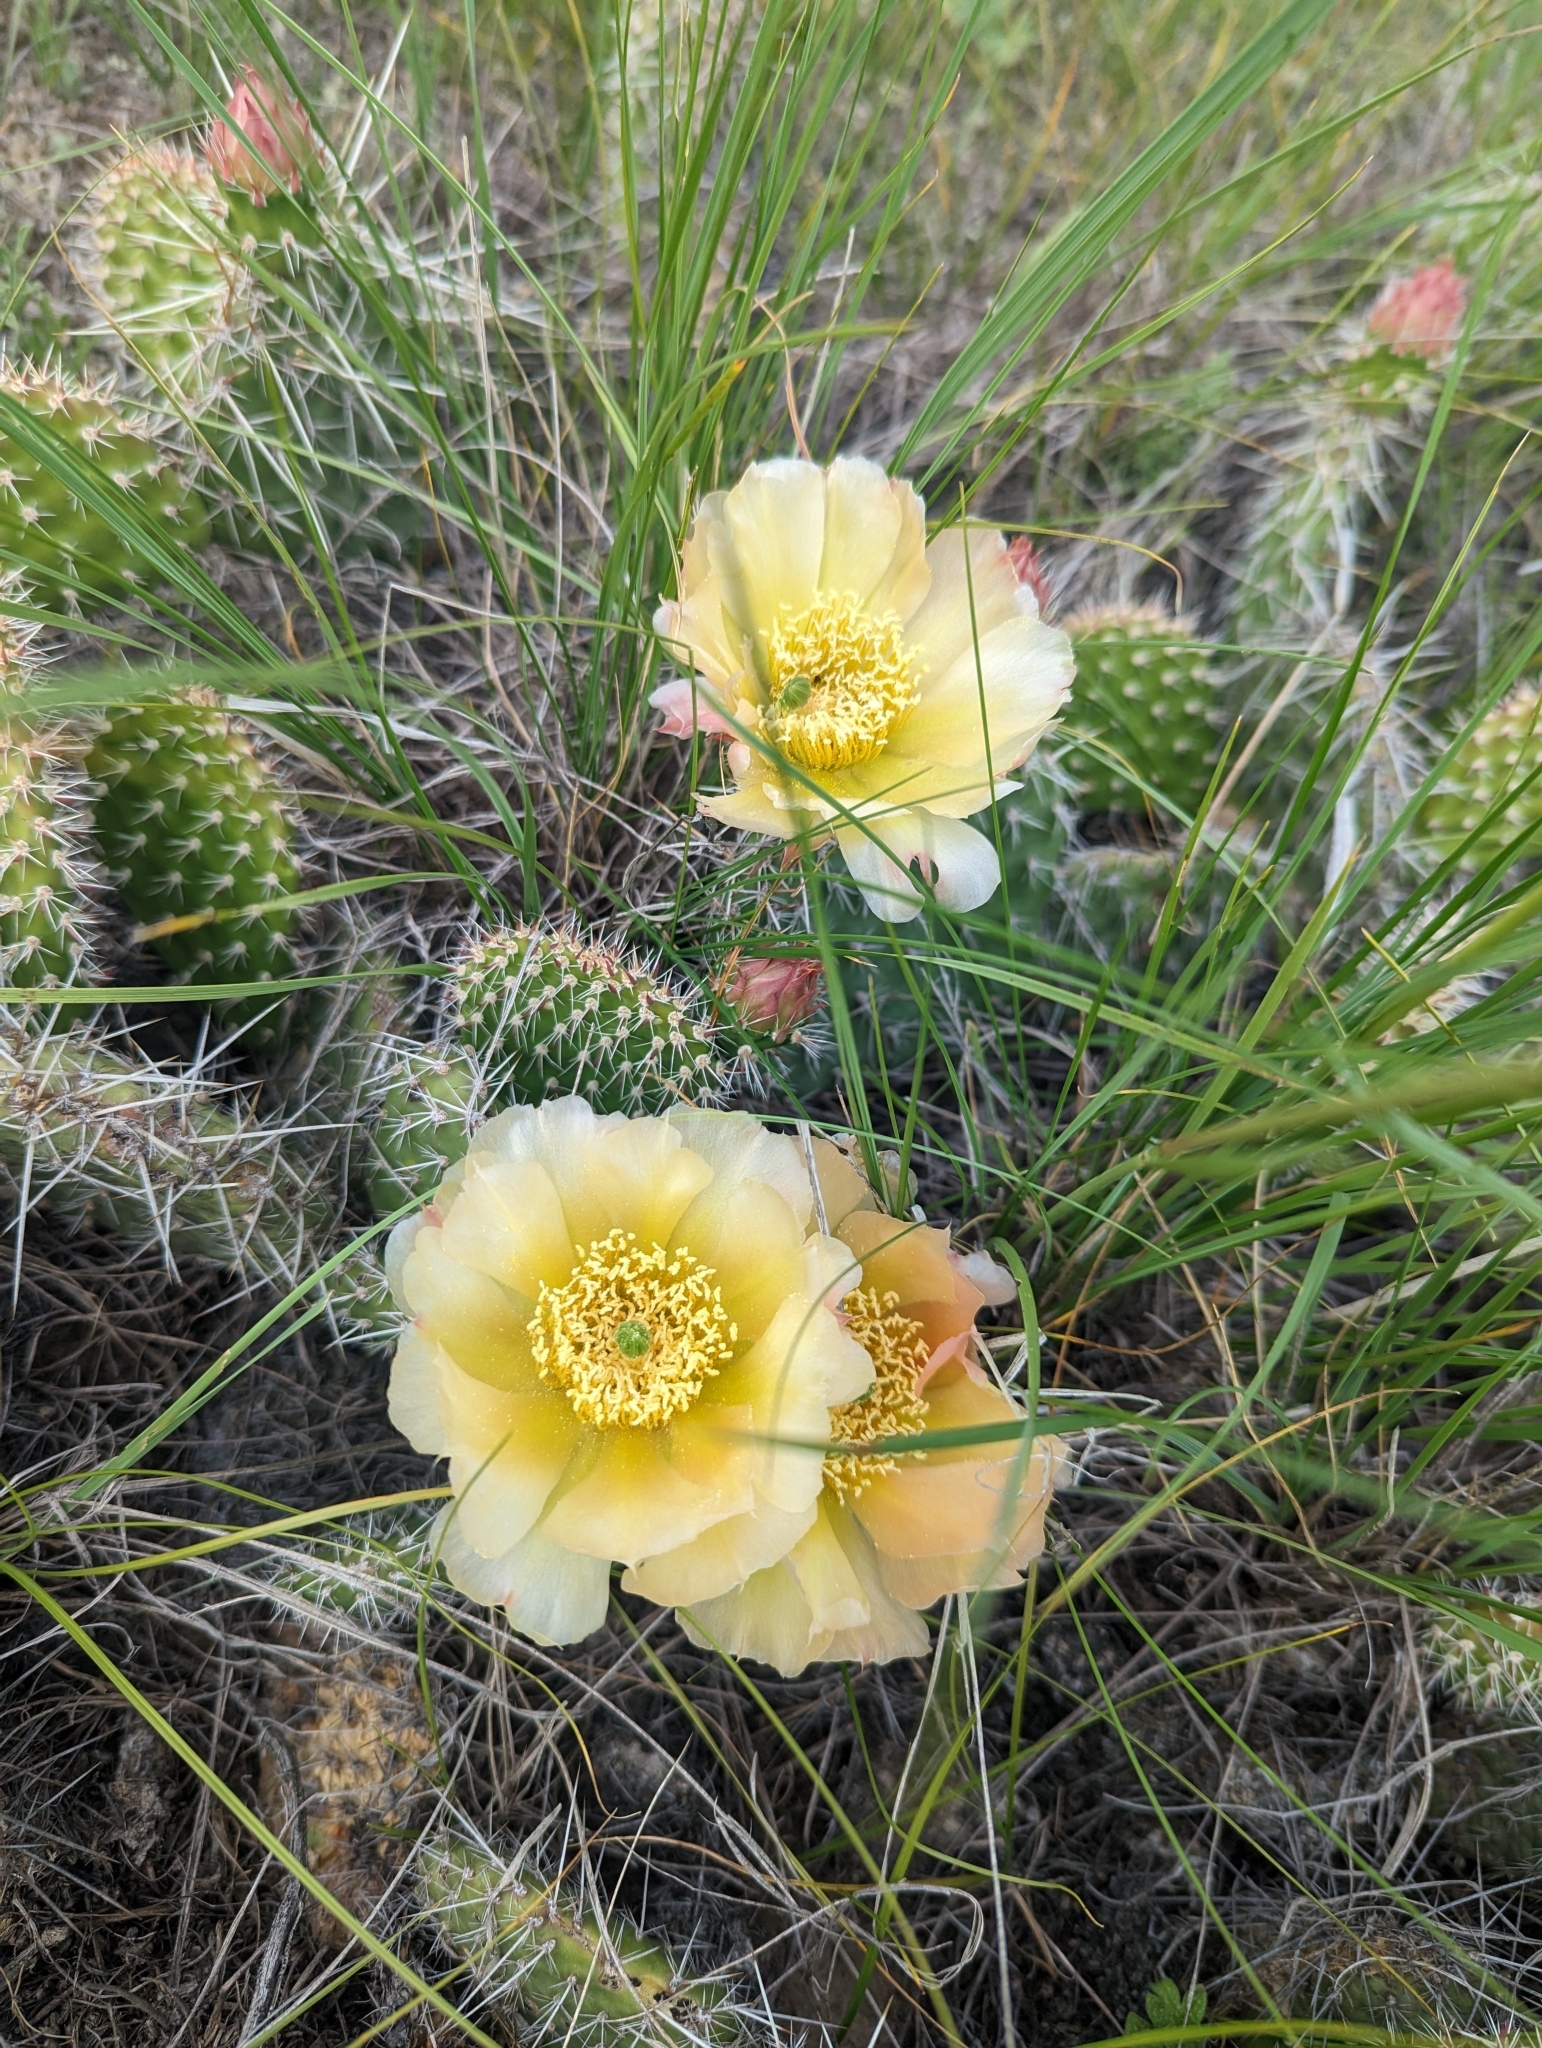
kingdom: Plantae
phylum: Tracheophyta
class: Magnoliopsida
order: Caryophyllales
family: Cactaceae
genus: Opuntia
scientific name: Opuntia polyacantha
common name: Plains prickly-pear
